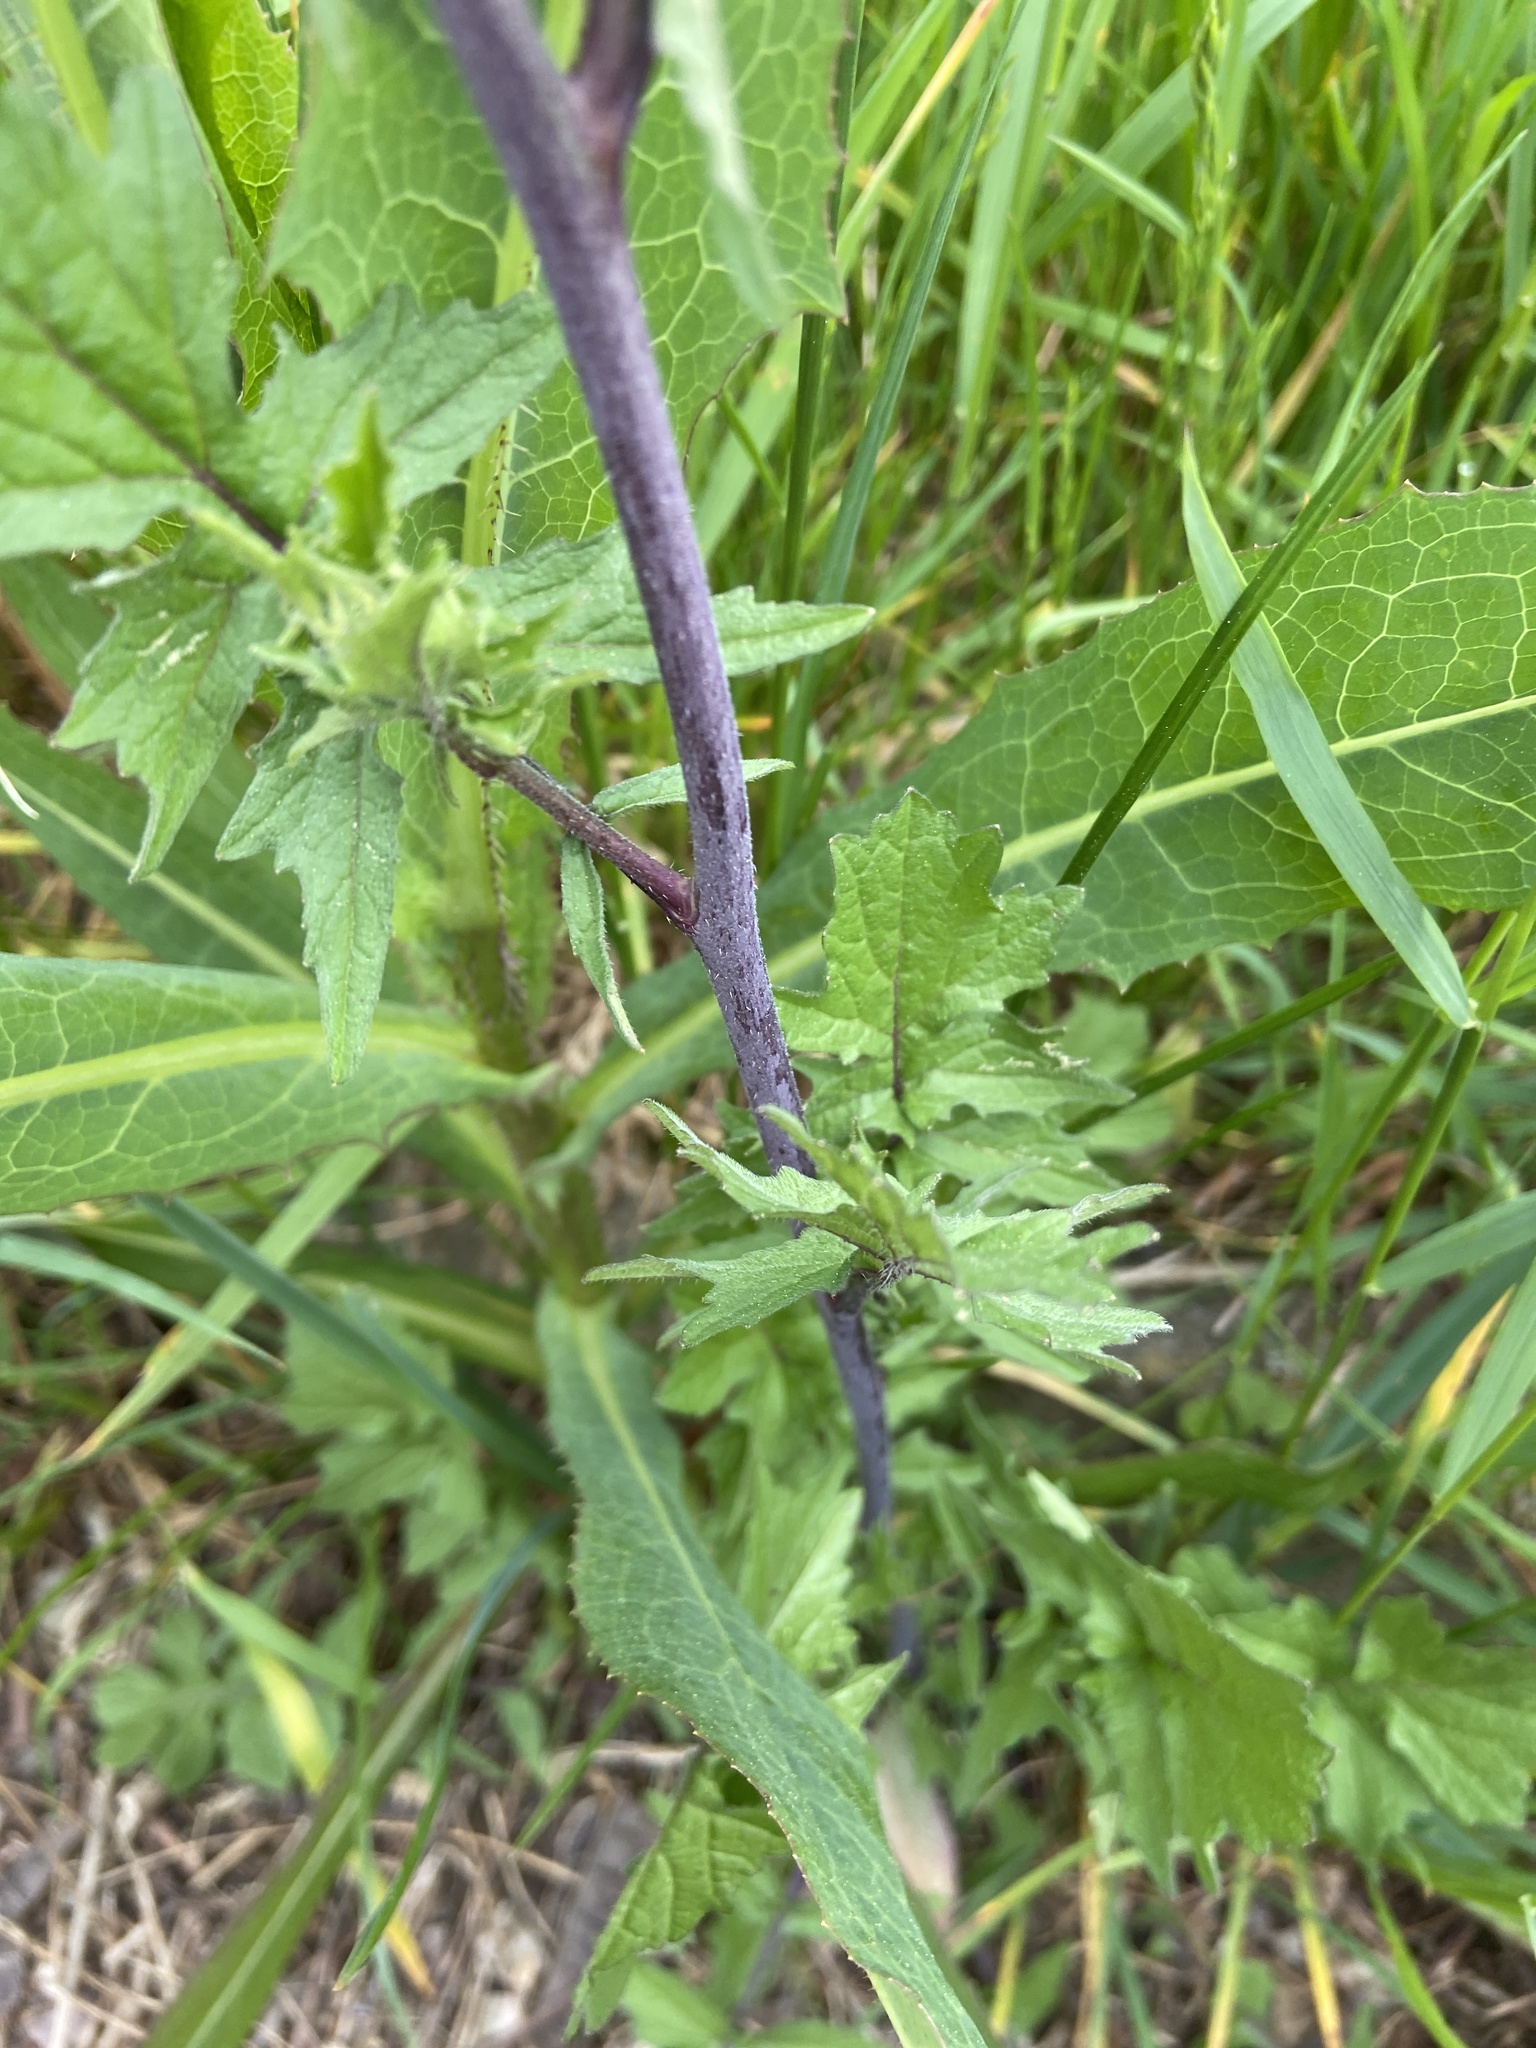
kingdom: Plantae
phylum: Tracheophyta
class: Magnoliopsida
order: Brassicales
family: Brassicaceae
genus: Sisymbrium
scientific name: Sisymbrium officinale
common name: Hedge mustard
